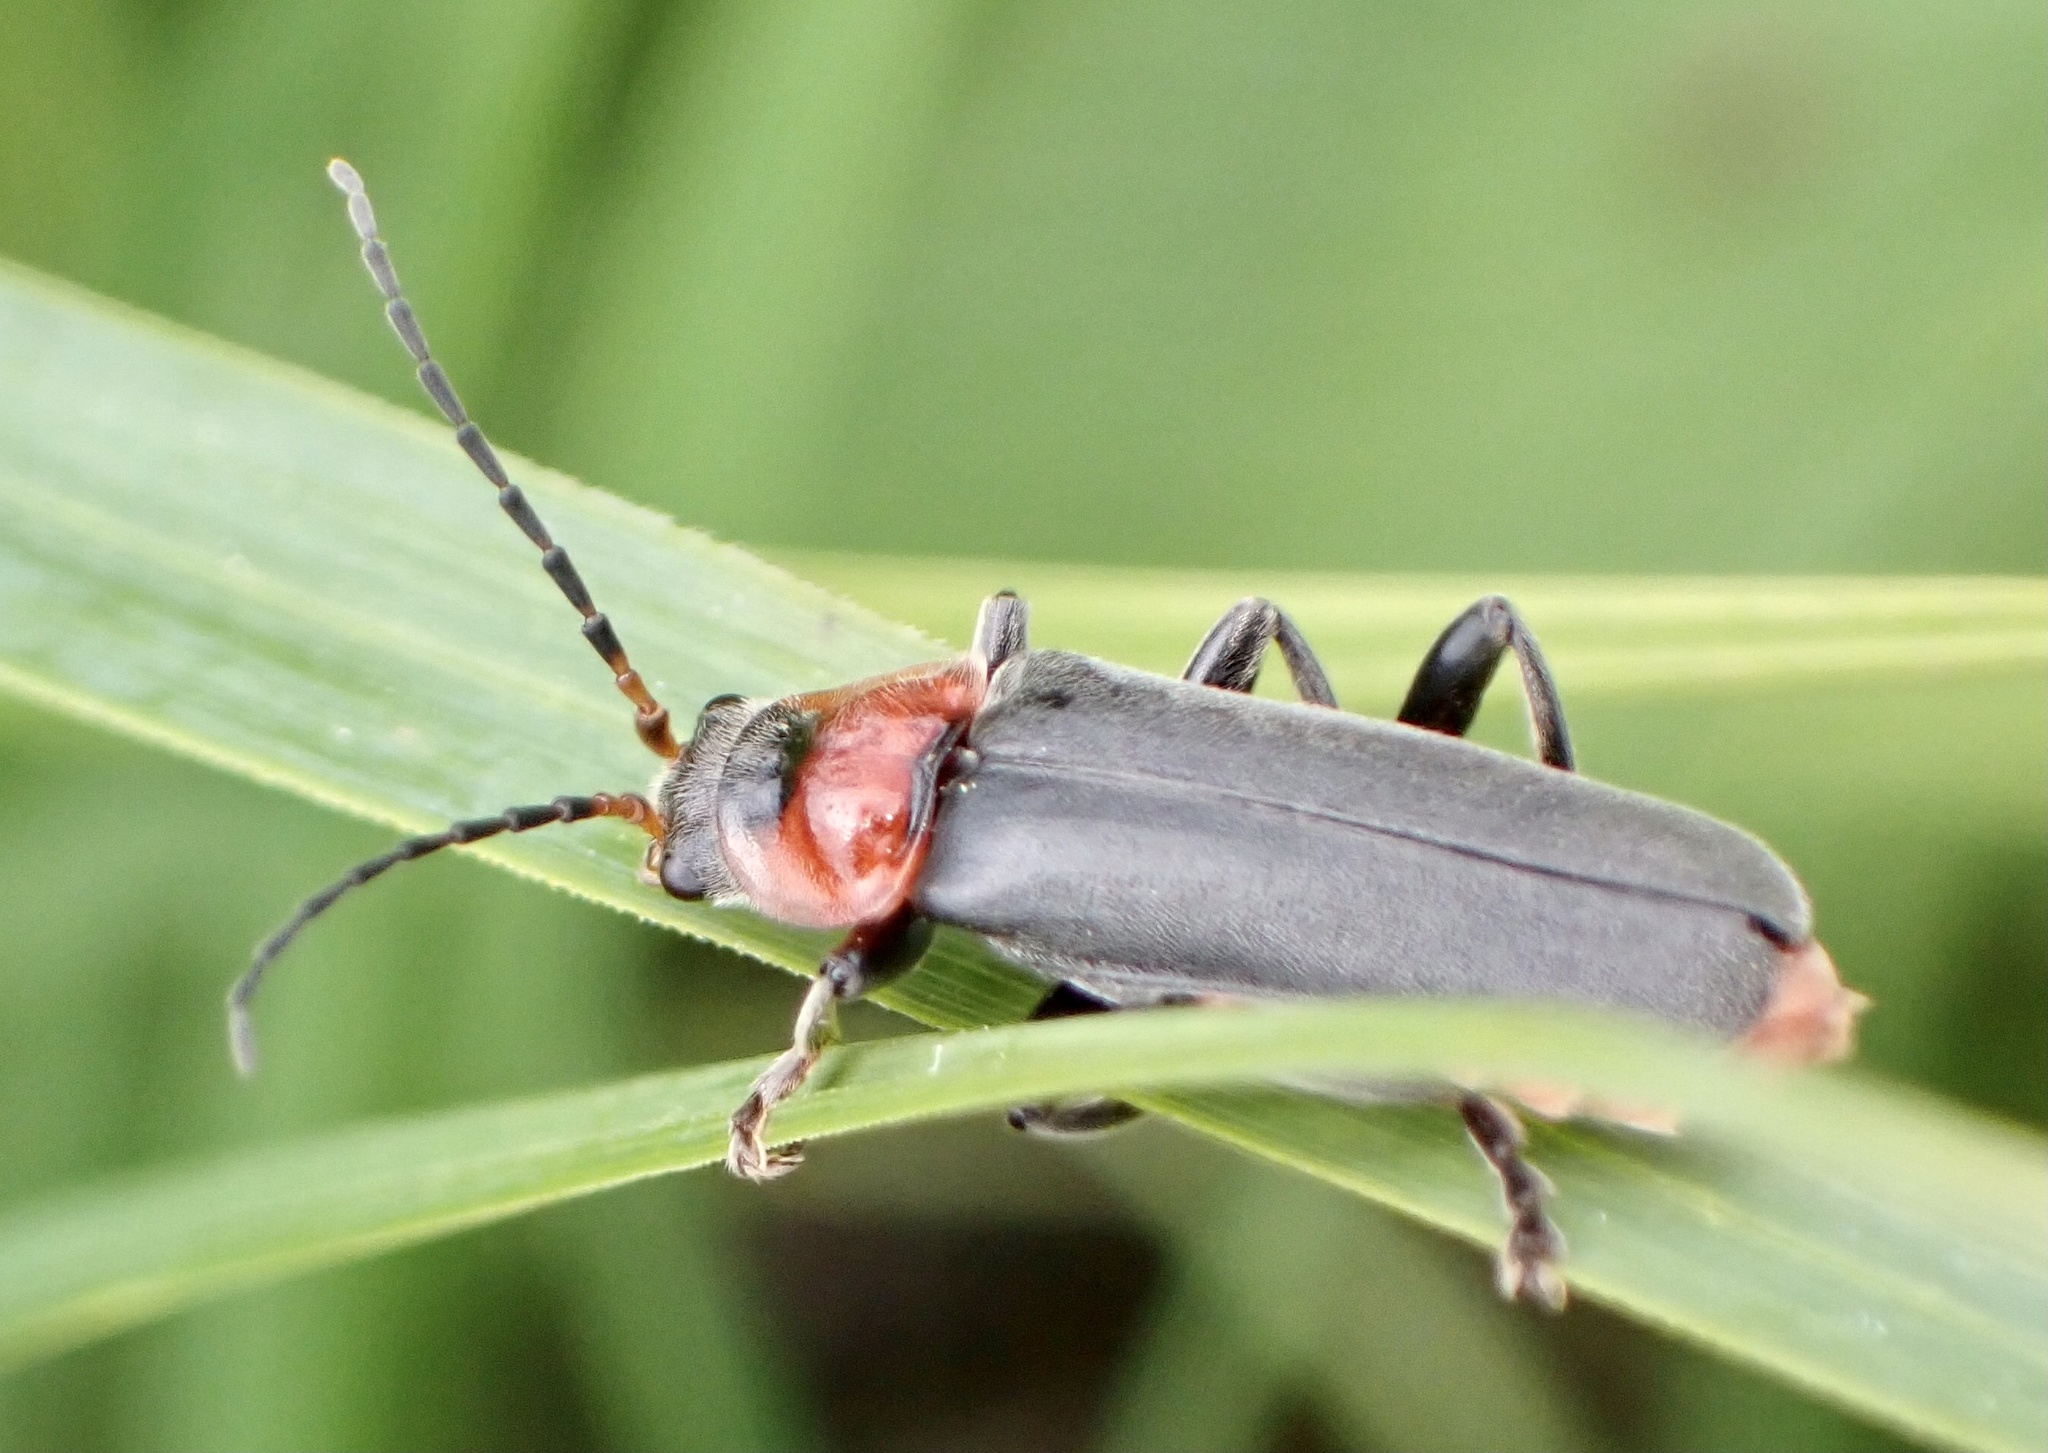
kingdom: Animalia
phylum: Arthropoda
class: Insecta
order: Coleoptera
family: Cantharidae
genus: Cantharis
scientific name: Cantharis fusca
